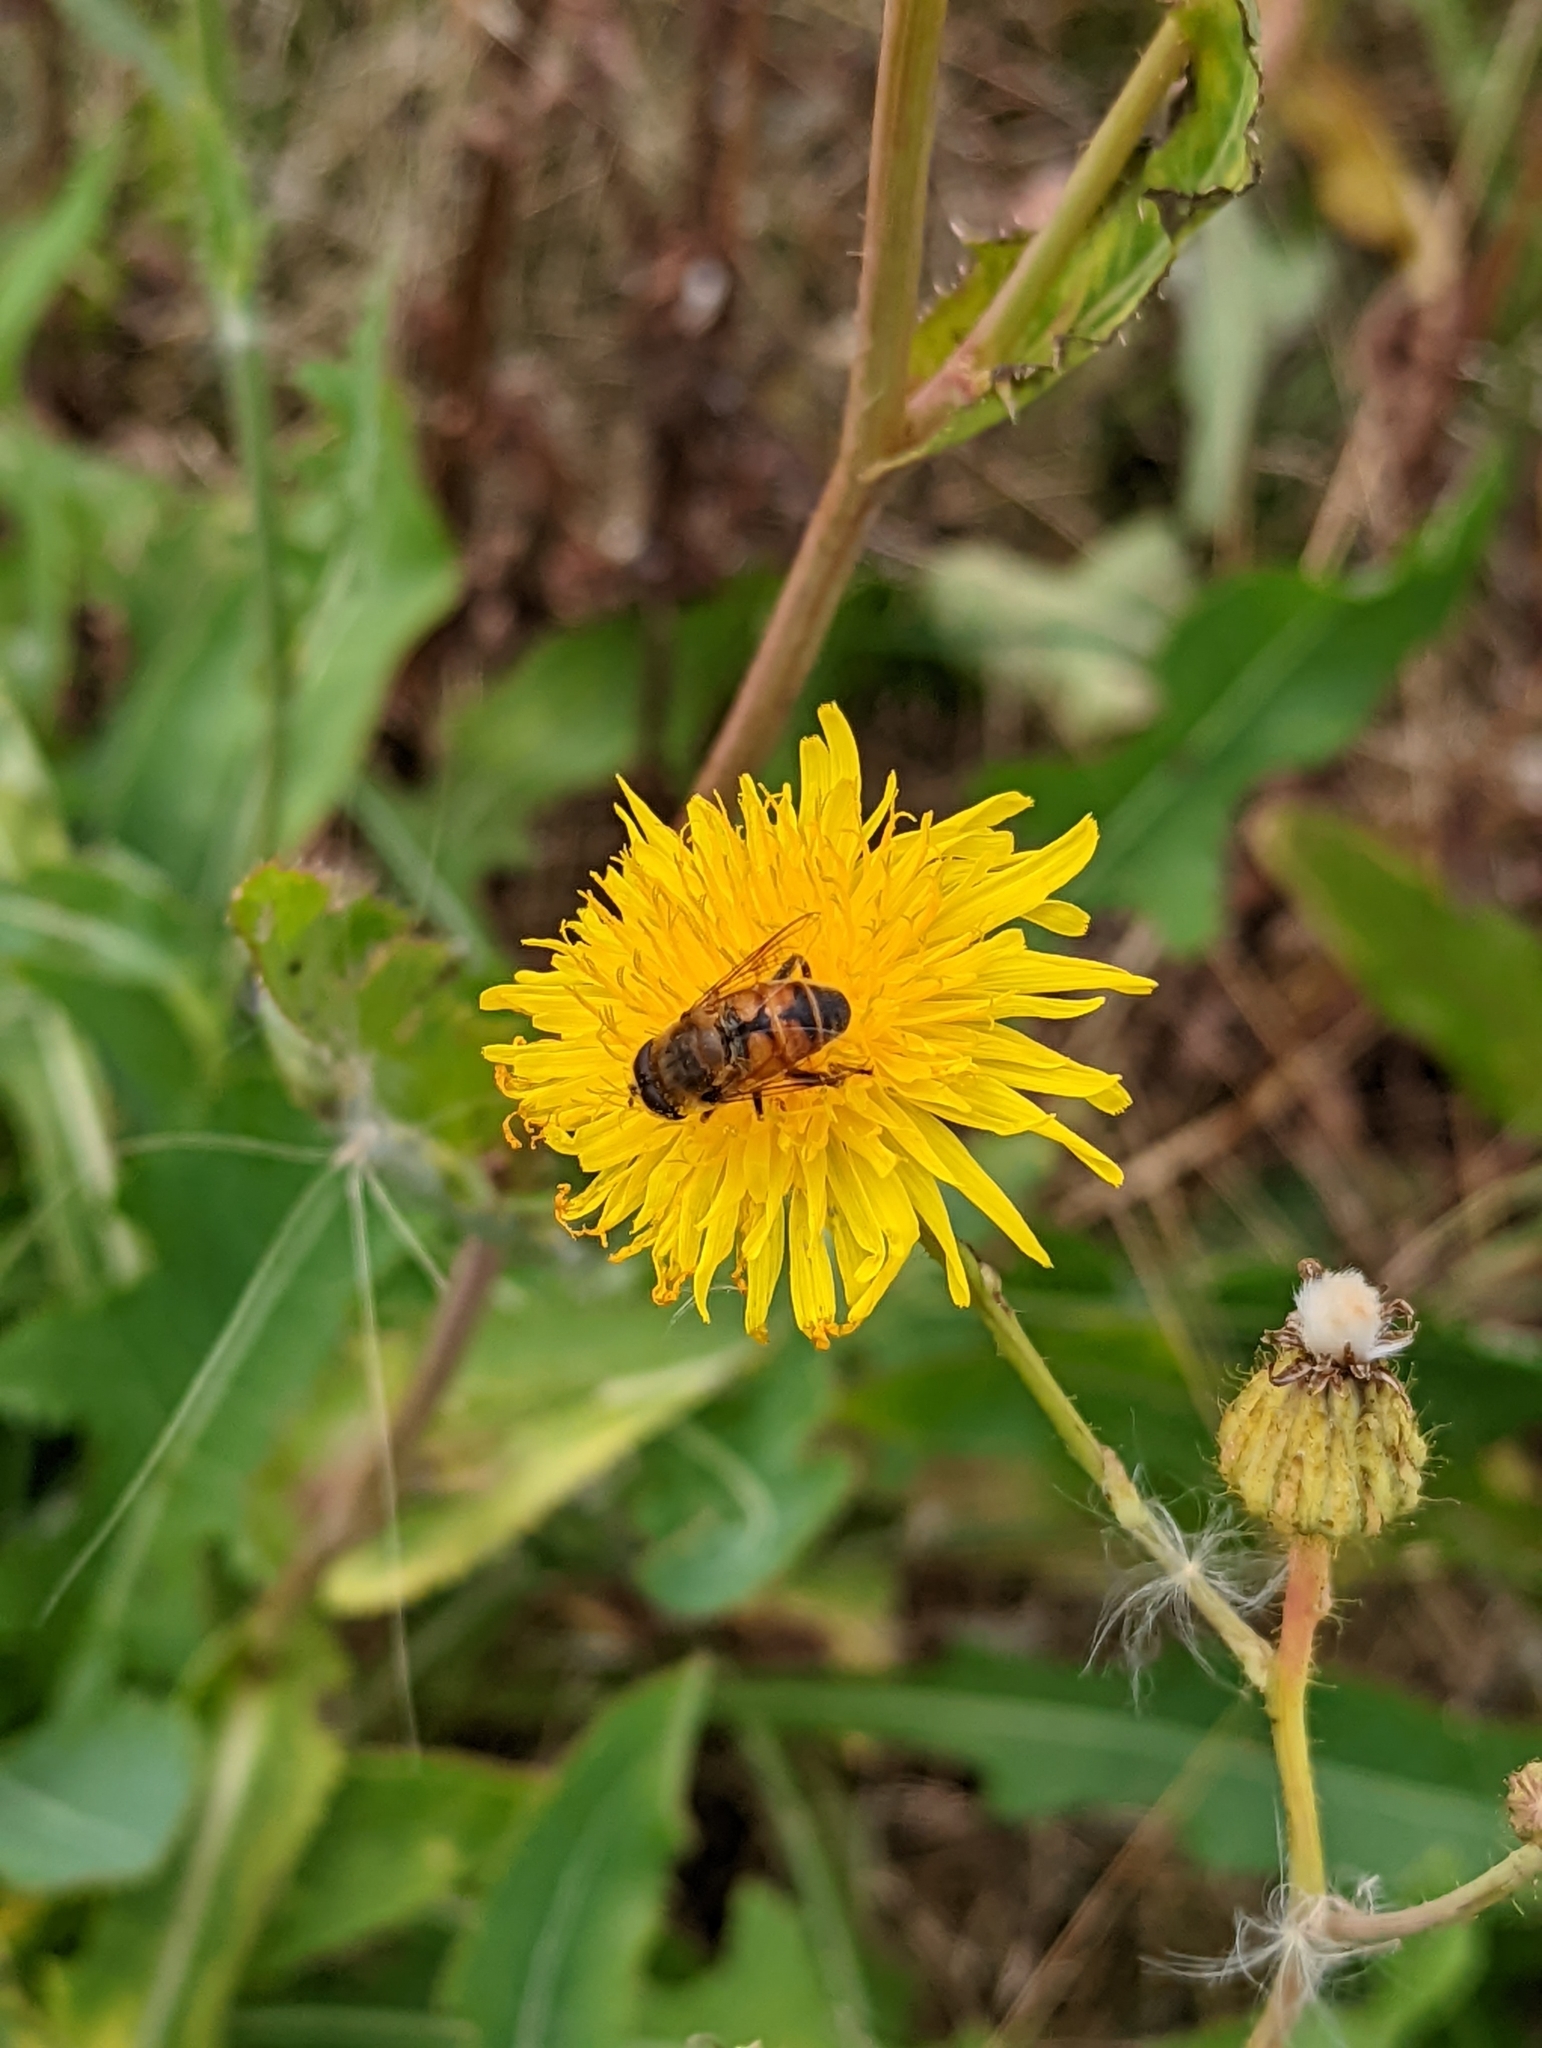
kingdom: Animalia
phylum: Arthropoda
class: Insecta
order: Diptera
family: Syrphidae
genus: Eristalis
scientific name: Eristalis tenax
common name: Drone fly
